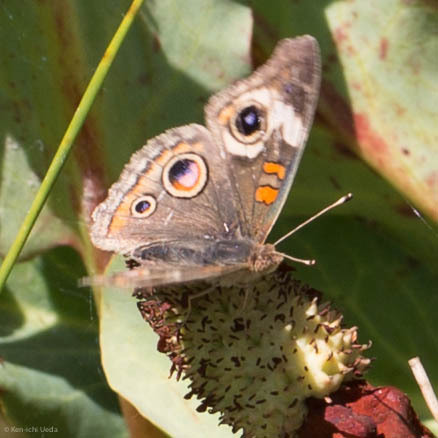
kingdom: Animalia
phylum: Arthropoda
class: Insecta
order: Lepidoptera
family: Nymphalidae
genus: Junonia
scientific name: Junonia grisea
